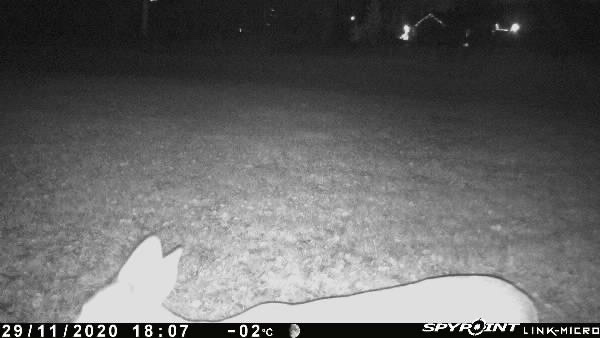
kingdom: Animalia
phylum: Chordata
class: Mammalia
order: Artiodactyla
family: Cervidae
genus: Odocoileus
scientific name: Odocoileus virginianus
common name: White-tailed deer
